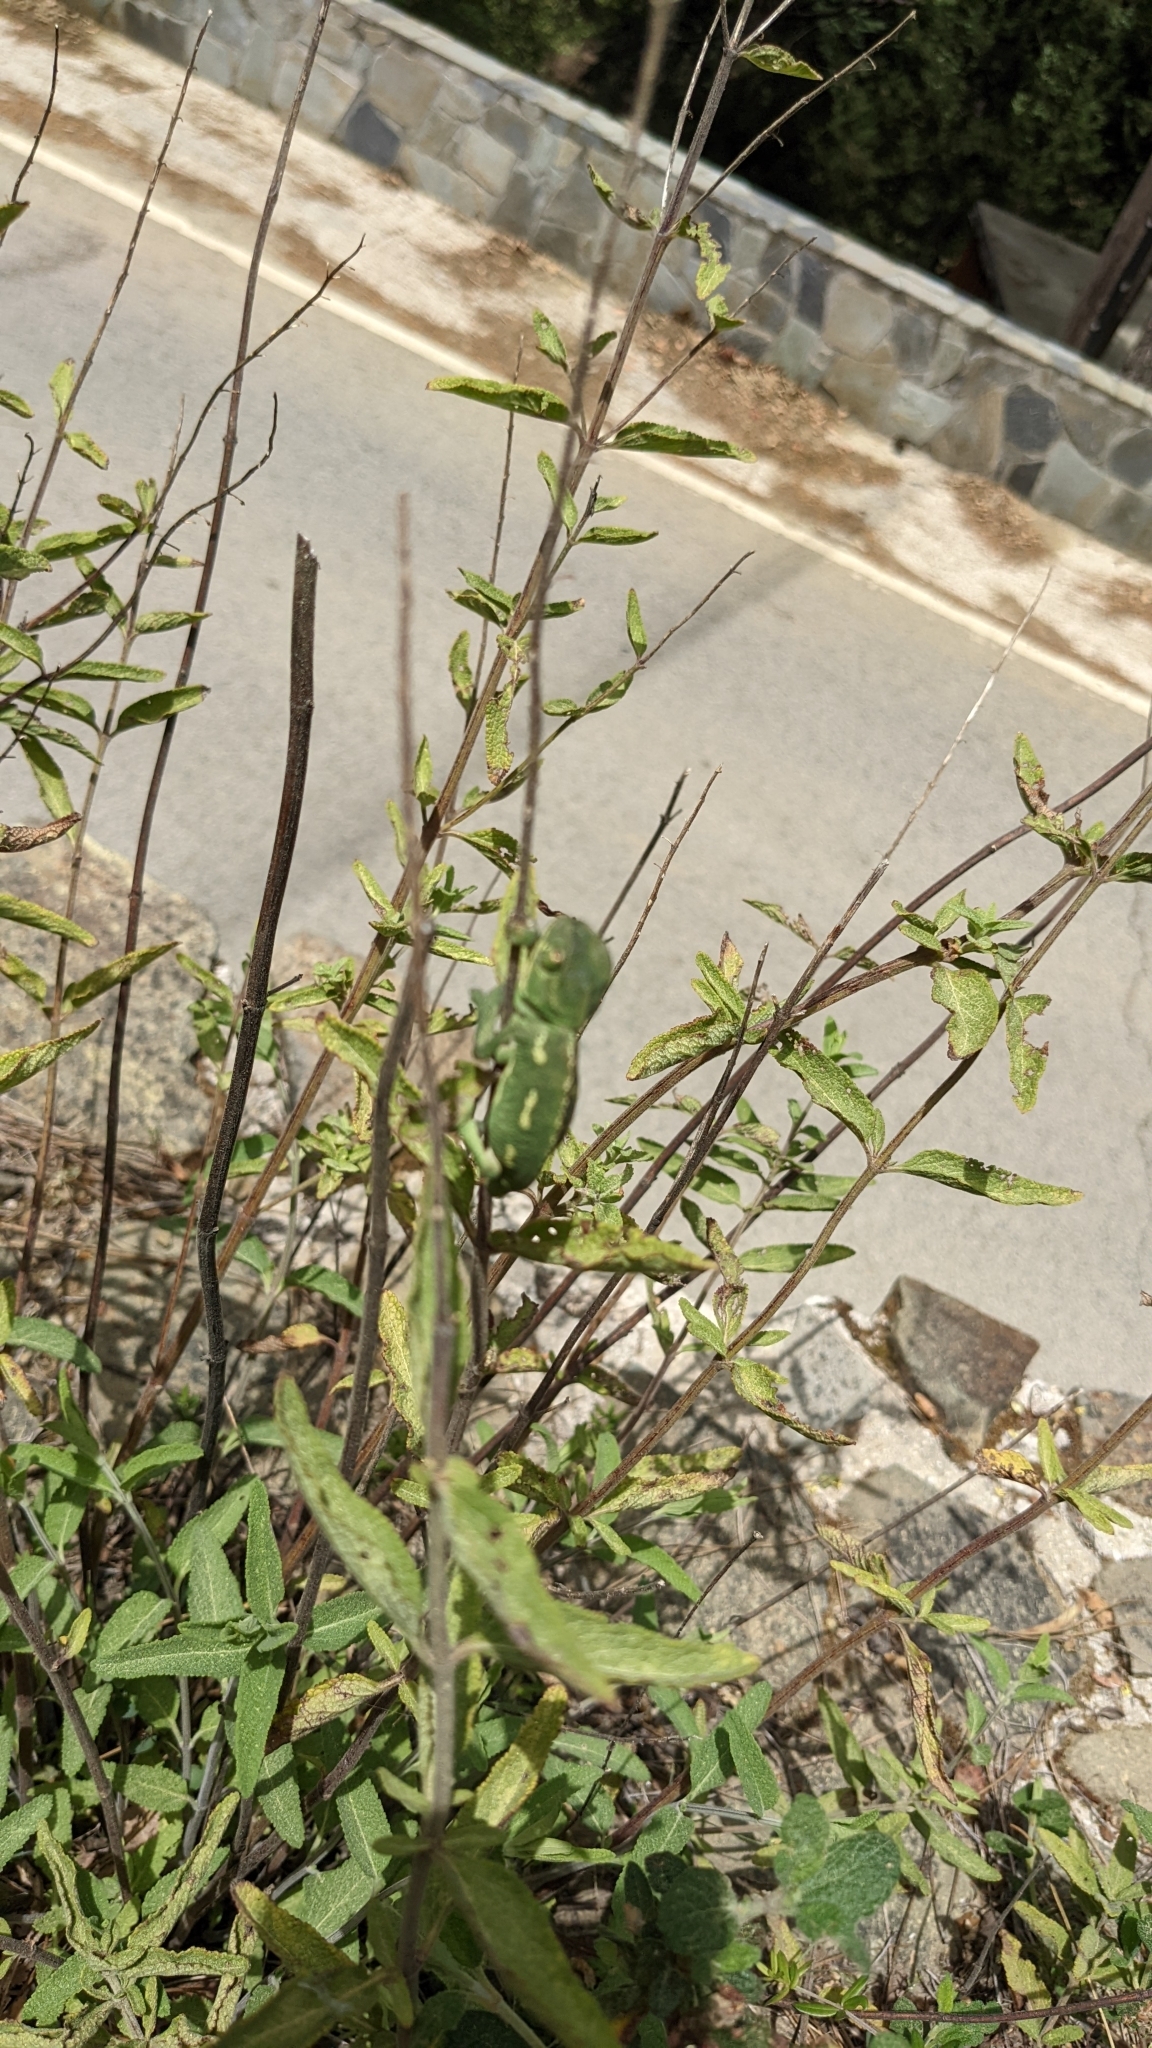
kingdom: Animalia
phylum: Chordata
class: Squamata
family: Chamaeleonidae
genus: Chamaeleo
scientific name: Chamaeleo chamaeleon
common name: Mediterranean chameleon
